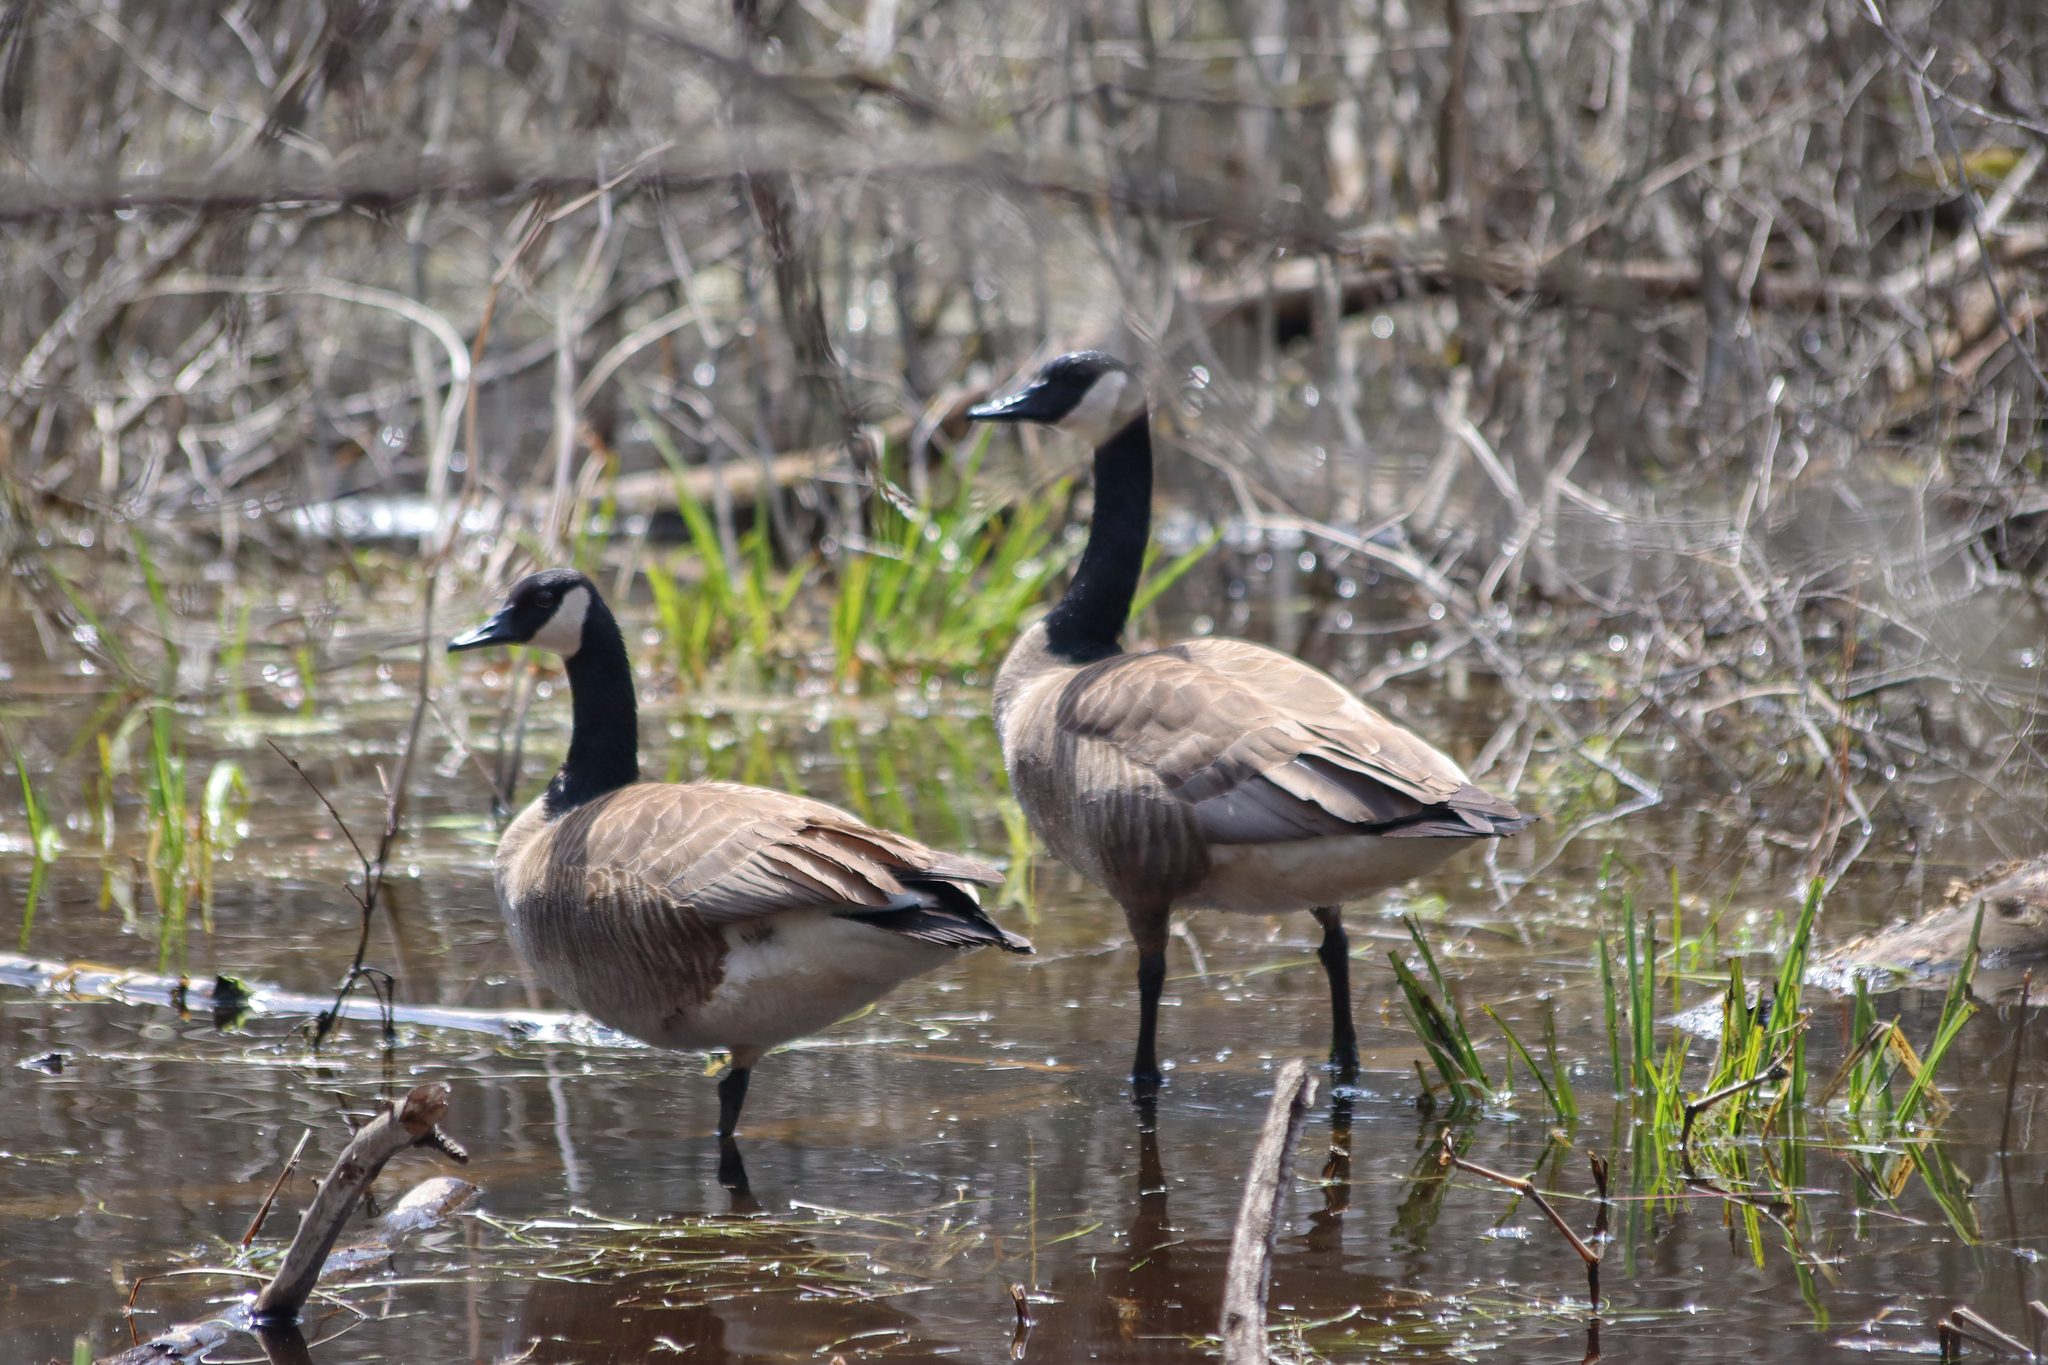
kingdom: Animalia
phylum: Chordata
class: Aves
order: Anseriformes
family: Anatidae
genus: Branta
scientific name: Branta canadensis
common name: Canada goose
